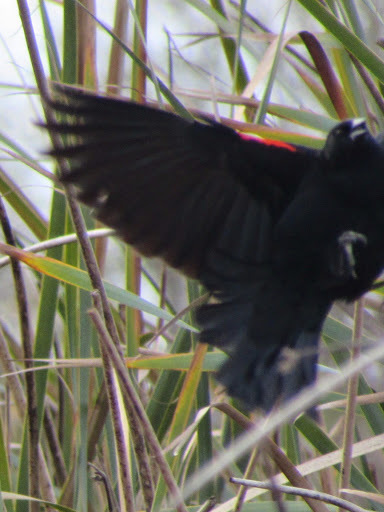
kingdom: Animalia
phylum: Chordata
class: Aves
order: Passeriformes
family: Icteridae
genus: Agelaius
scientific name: Agelaius phoeniceus
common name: Red-winged blackbird
